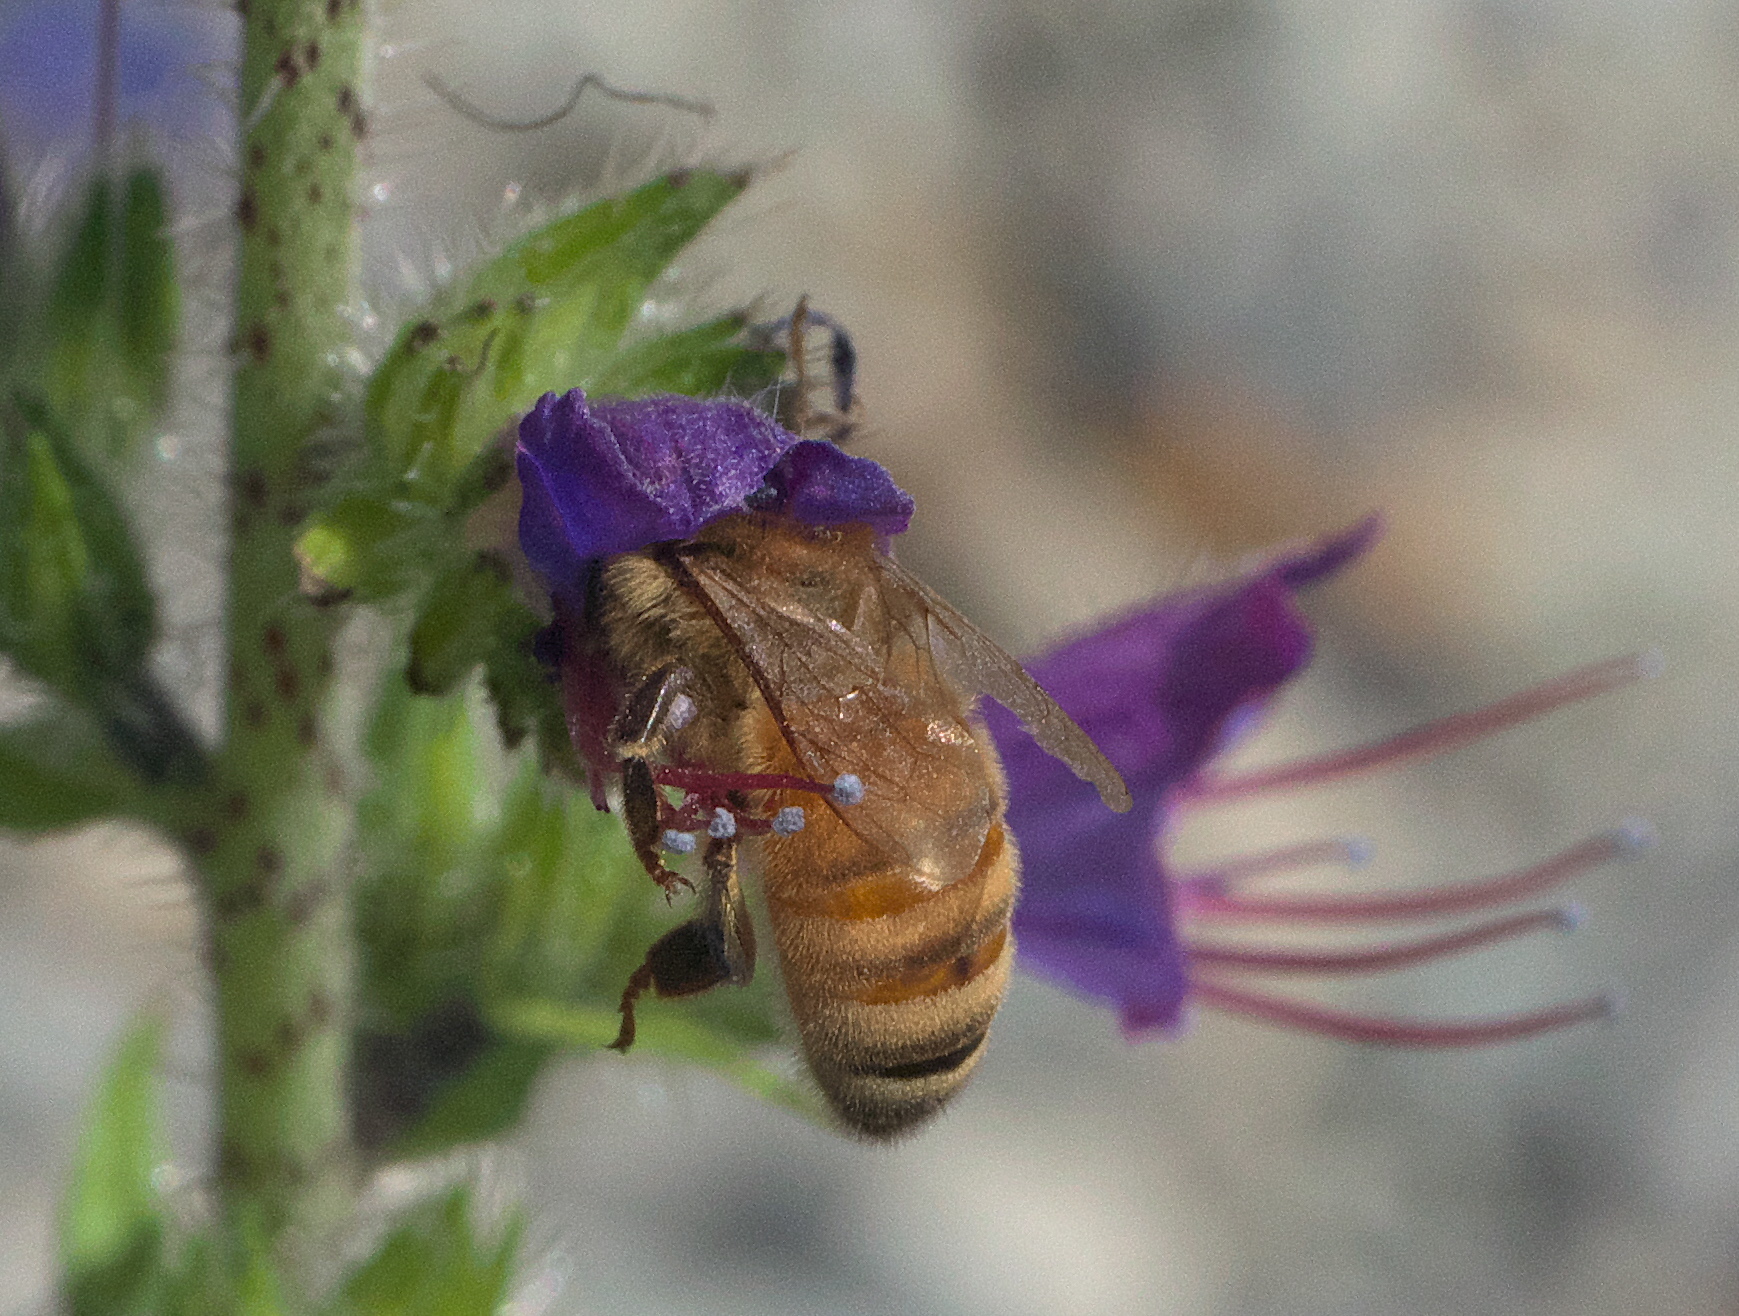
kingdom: Animalia
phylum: Arthropoda
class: Insecta
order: Hymenoptera
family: Apidae
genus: Apis
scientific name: Apis mellifera
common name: Honey bee
